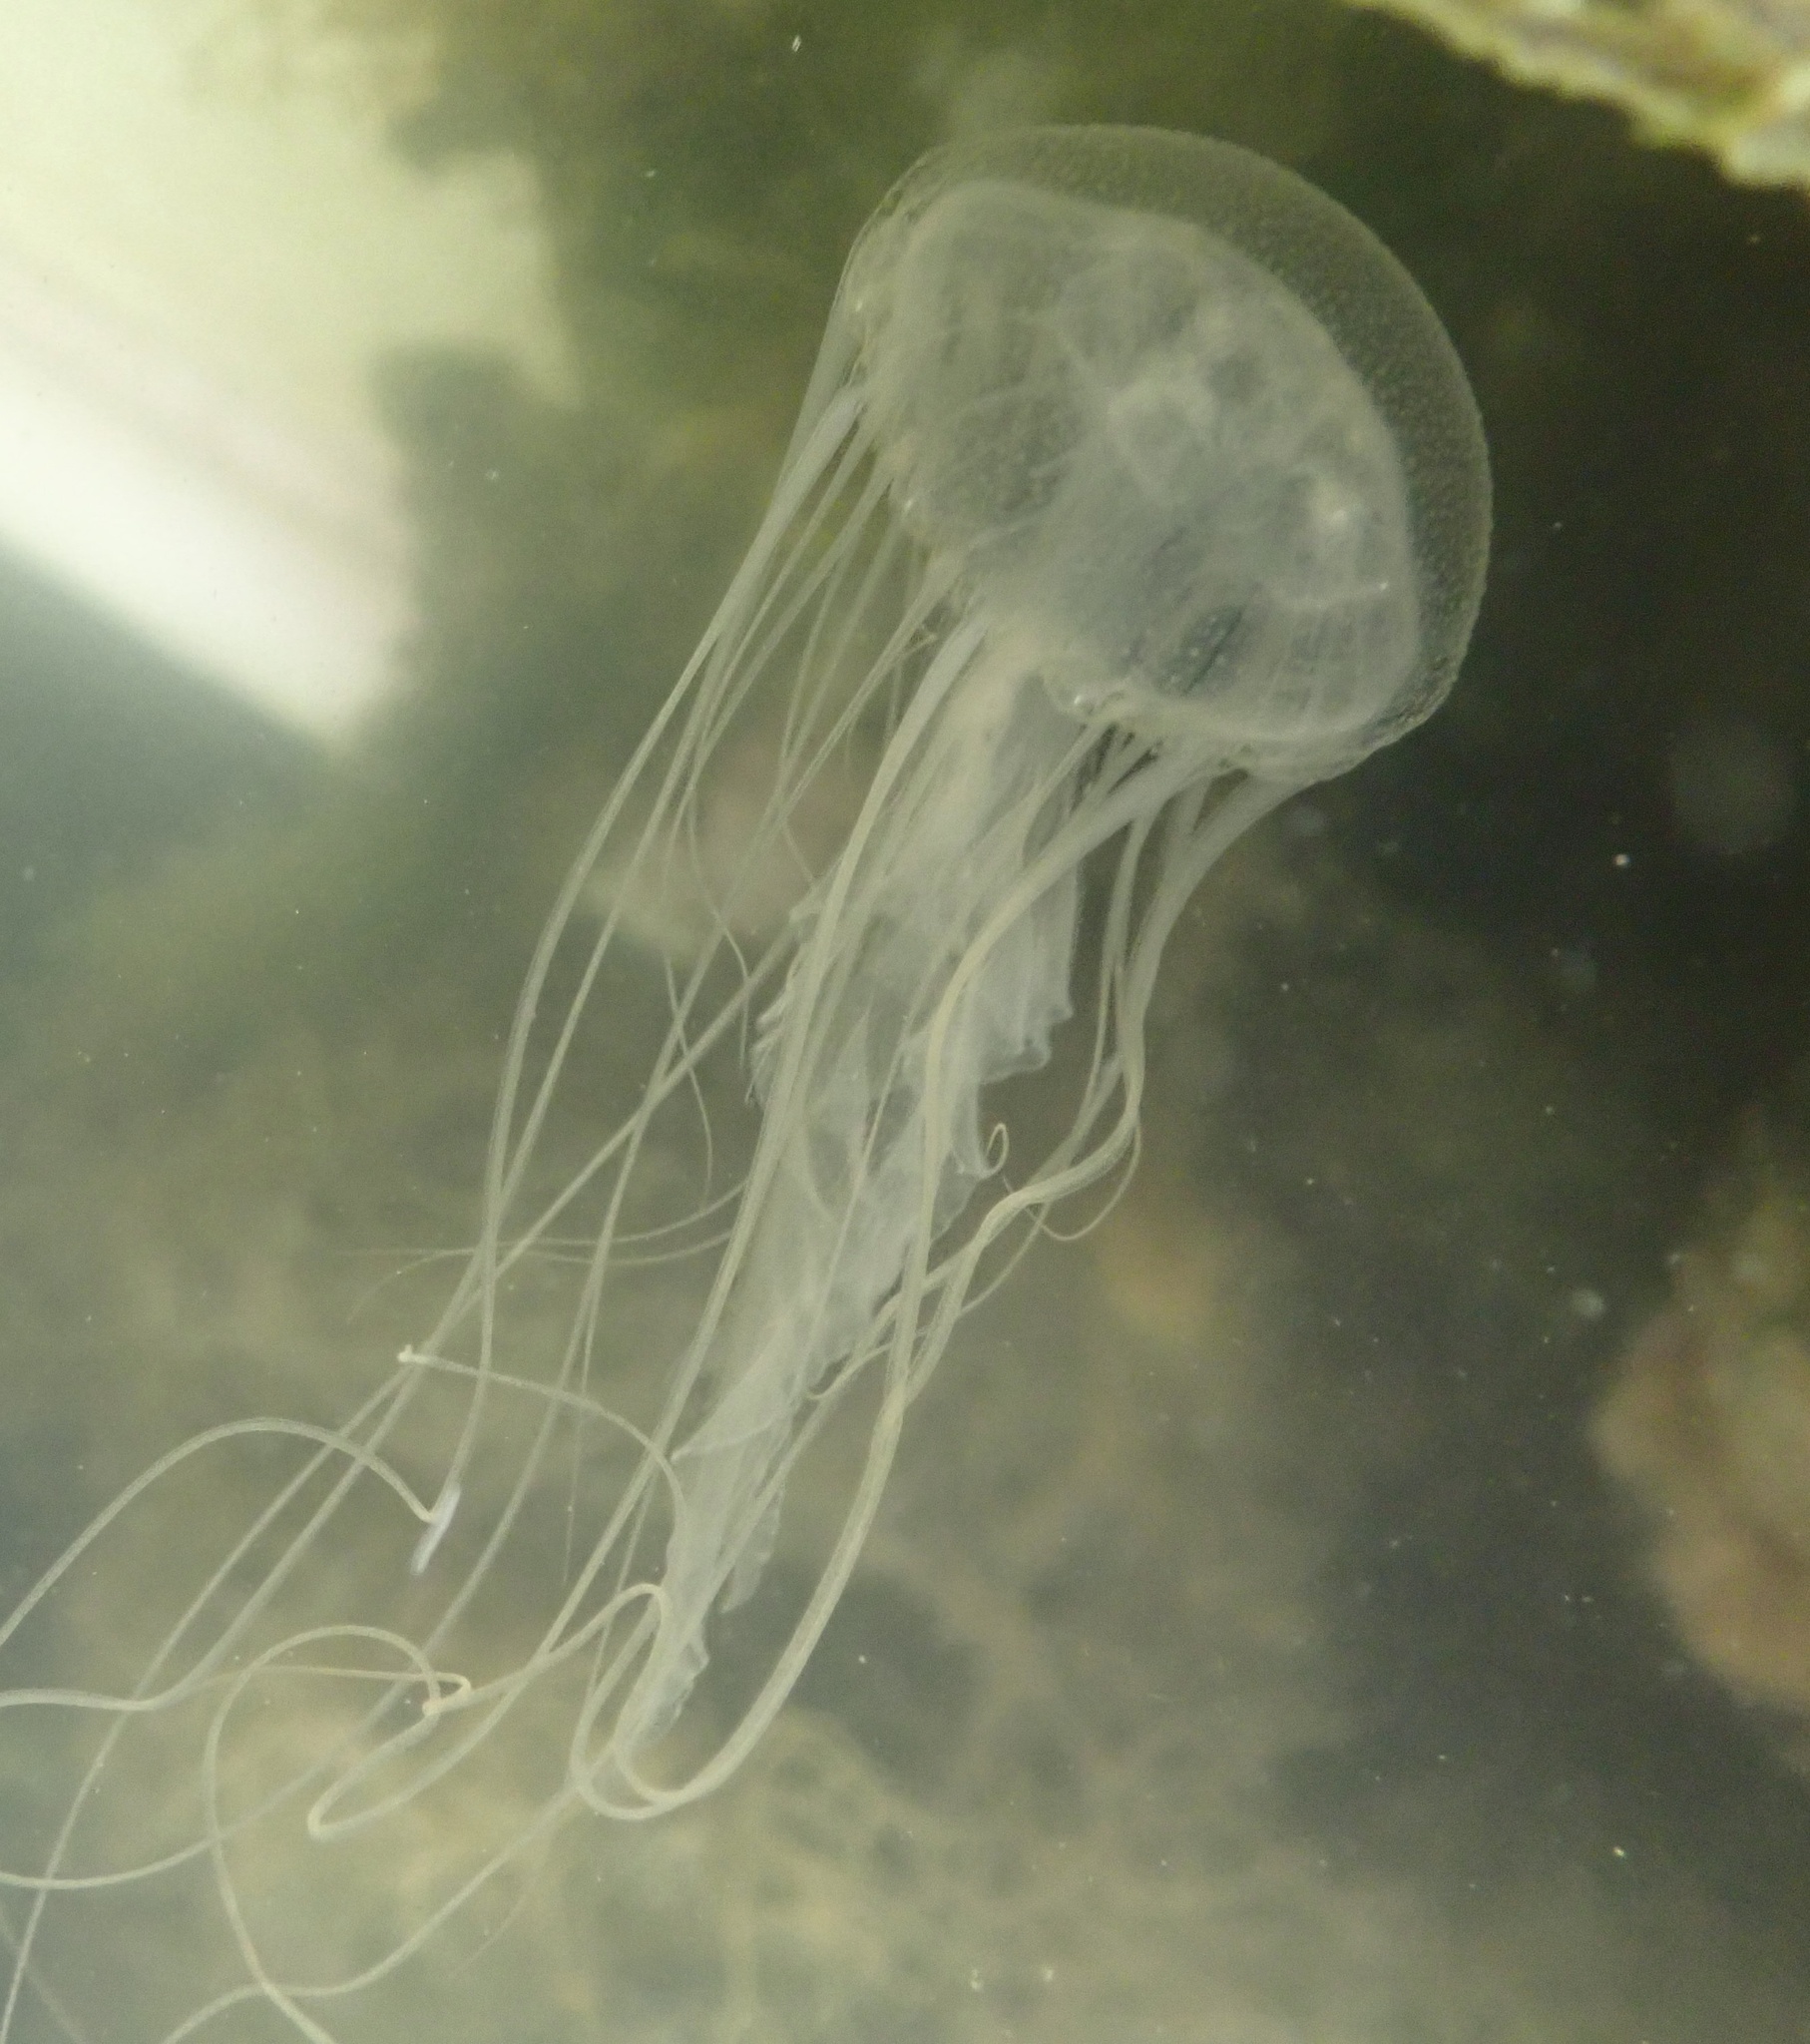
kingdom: Animalia
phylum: Cnidaria
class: Scyphozoa
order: Semaeostomeae
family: Pelagiidae
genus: Chrysaora
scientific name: Chrysaora chesapeakei
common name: Bay nettle
